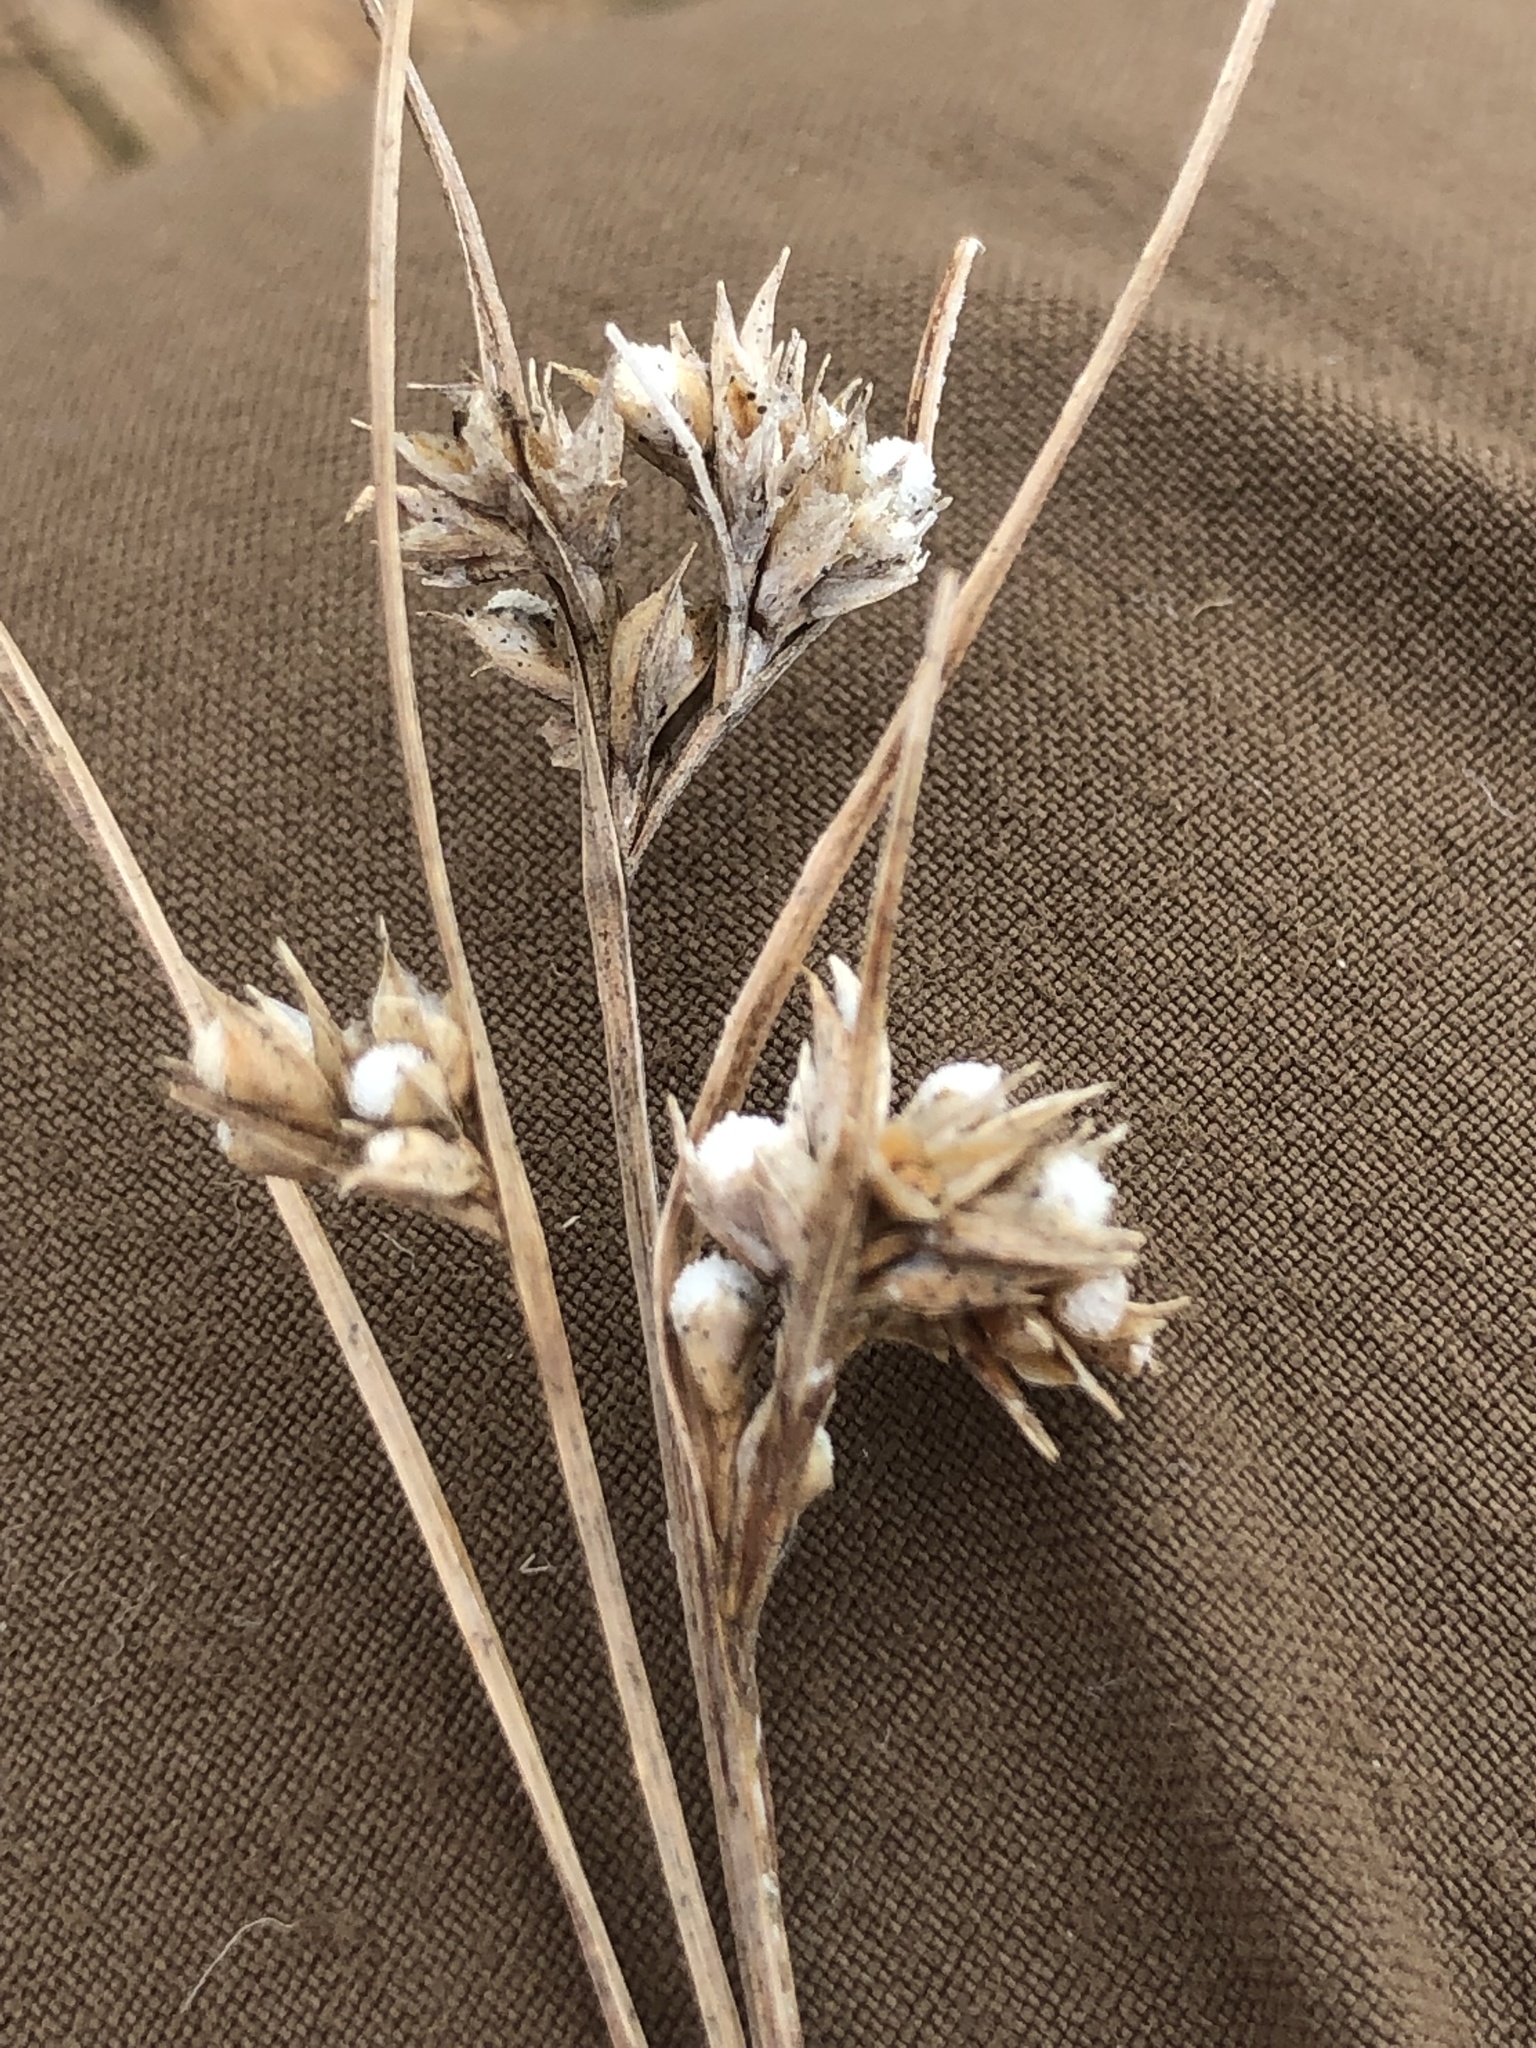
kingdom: Plantae
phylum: Tracheophyta
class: Liliopsida
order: Poales
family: Cyperaceae
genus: Scleria
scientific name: Scleria pauciflora
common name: Few-flowered nutrush
